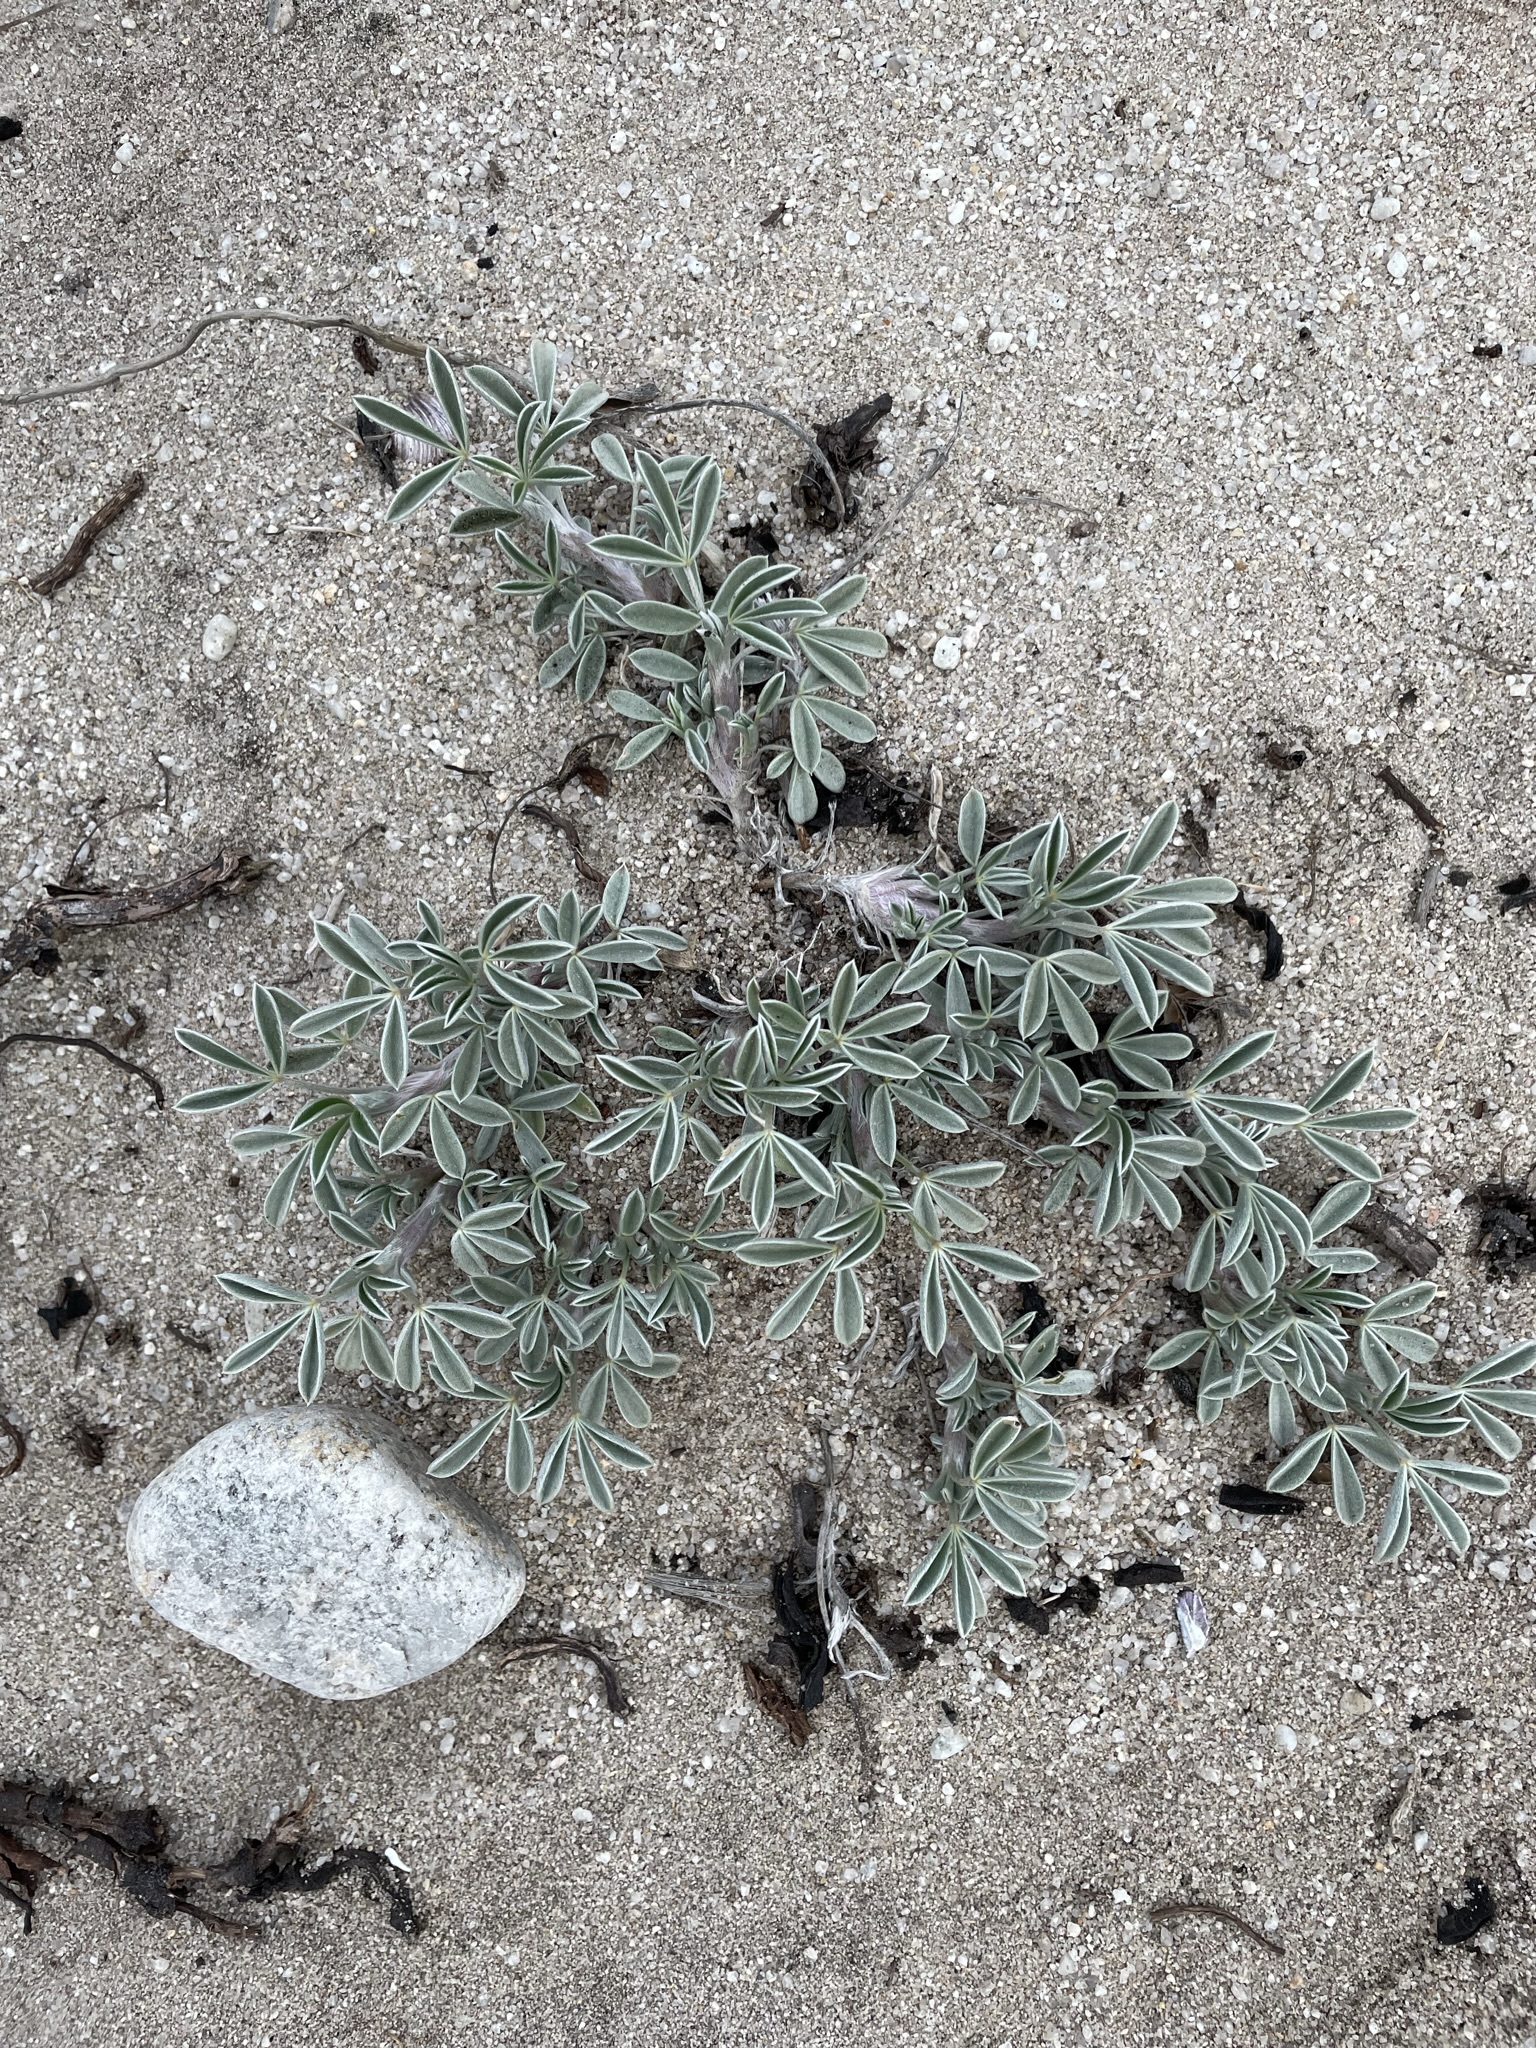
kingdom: Plantae
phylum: Tracheophyta
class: Magnoliopsida
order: Fabales
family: Fabaceae
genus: Lupinus
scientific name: Lupinus tidestromii
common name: Clover lupine
